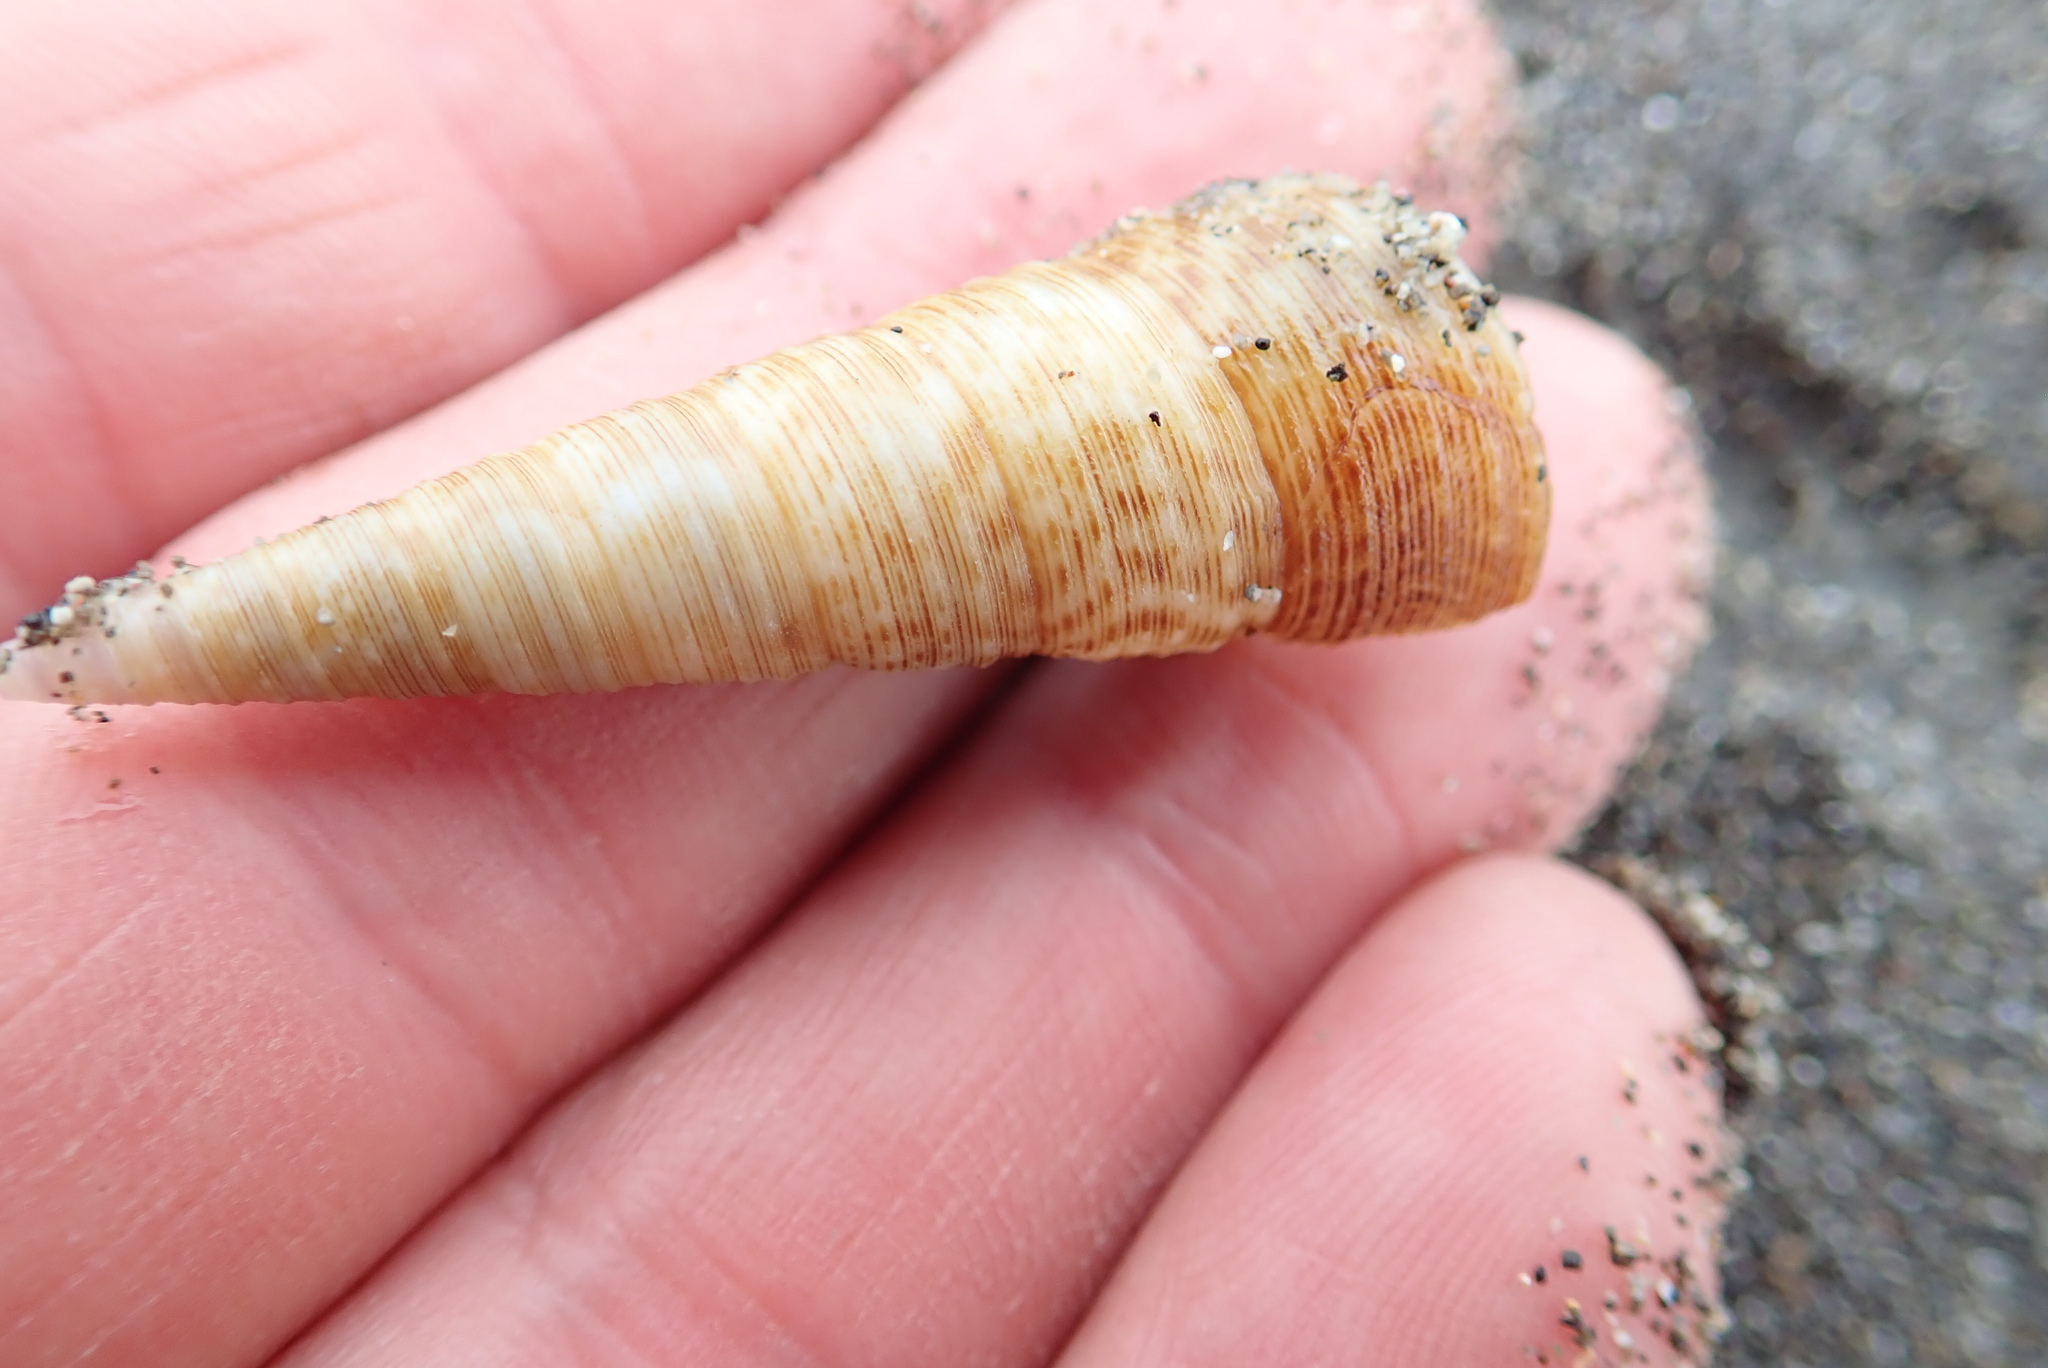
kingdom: Animalia
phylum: Mollusca
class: Gastropoda
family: Turritellidae
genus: Maoricolpus
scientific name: Maoricolpus roseus
